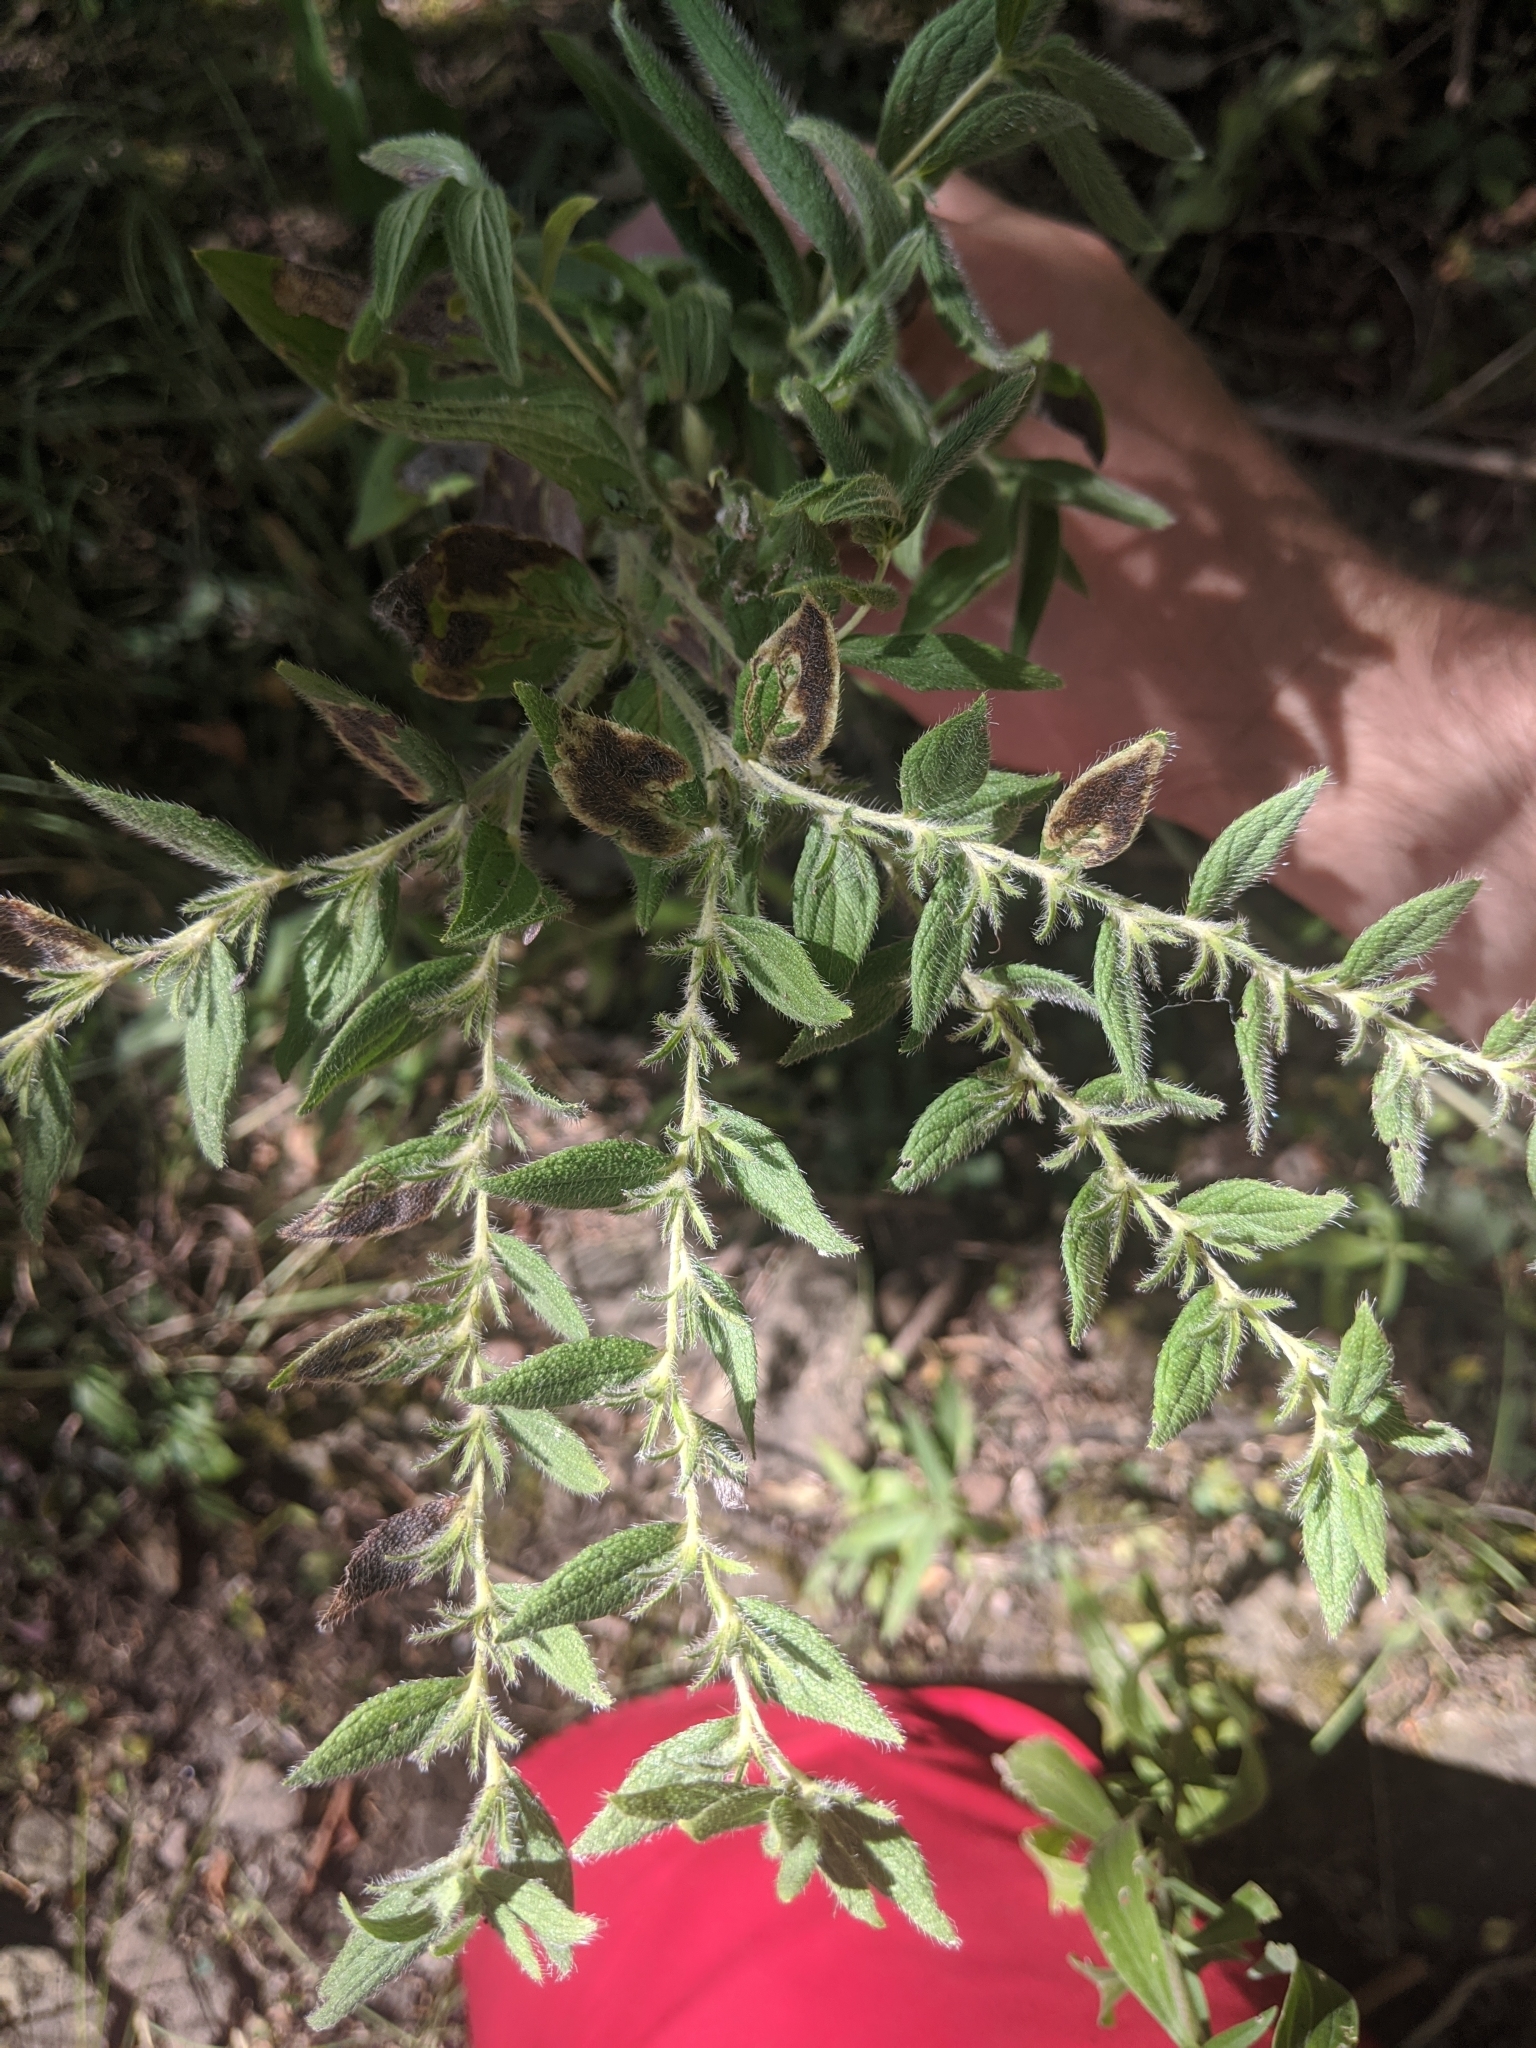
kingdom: Plantae
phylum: Tracheophyta
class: Magnoliopsida
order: Boraginales
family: Boraginaceae
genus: Lithospermum
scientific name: Lithospermum parviflorum
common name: Hairy false gromwell
